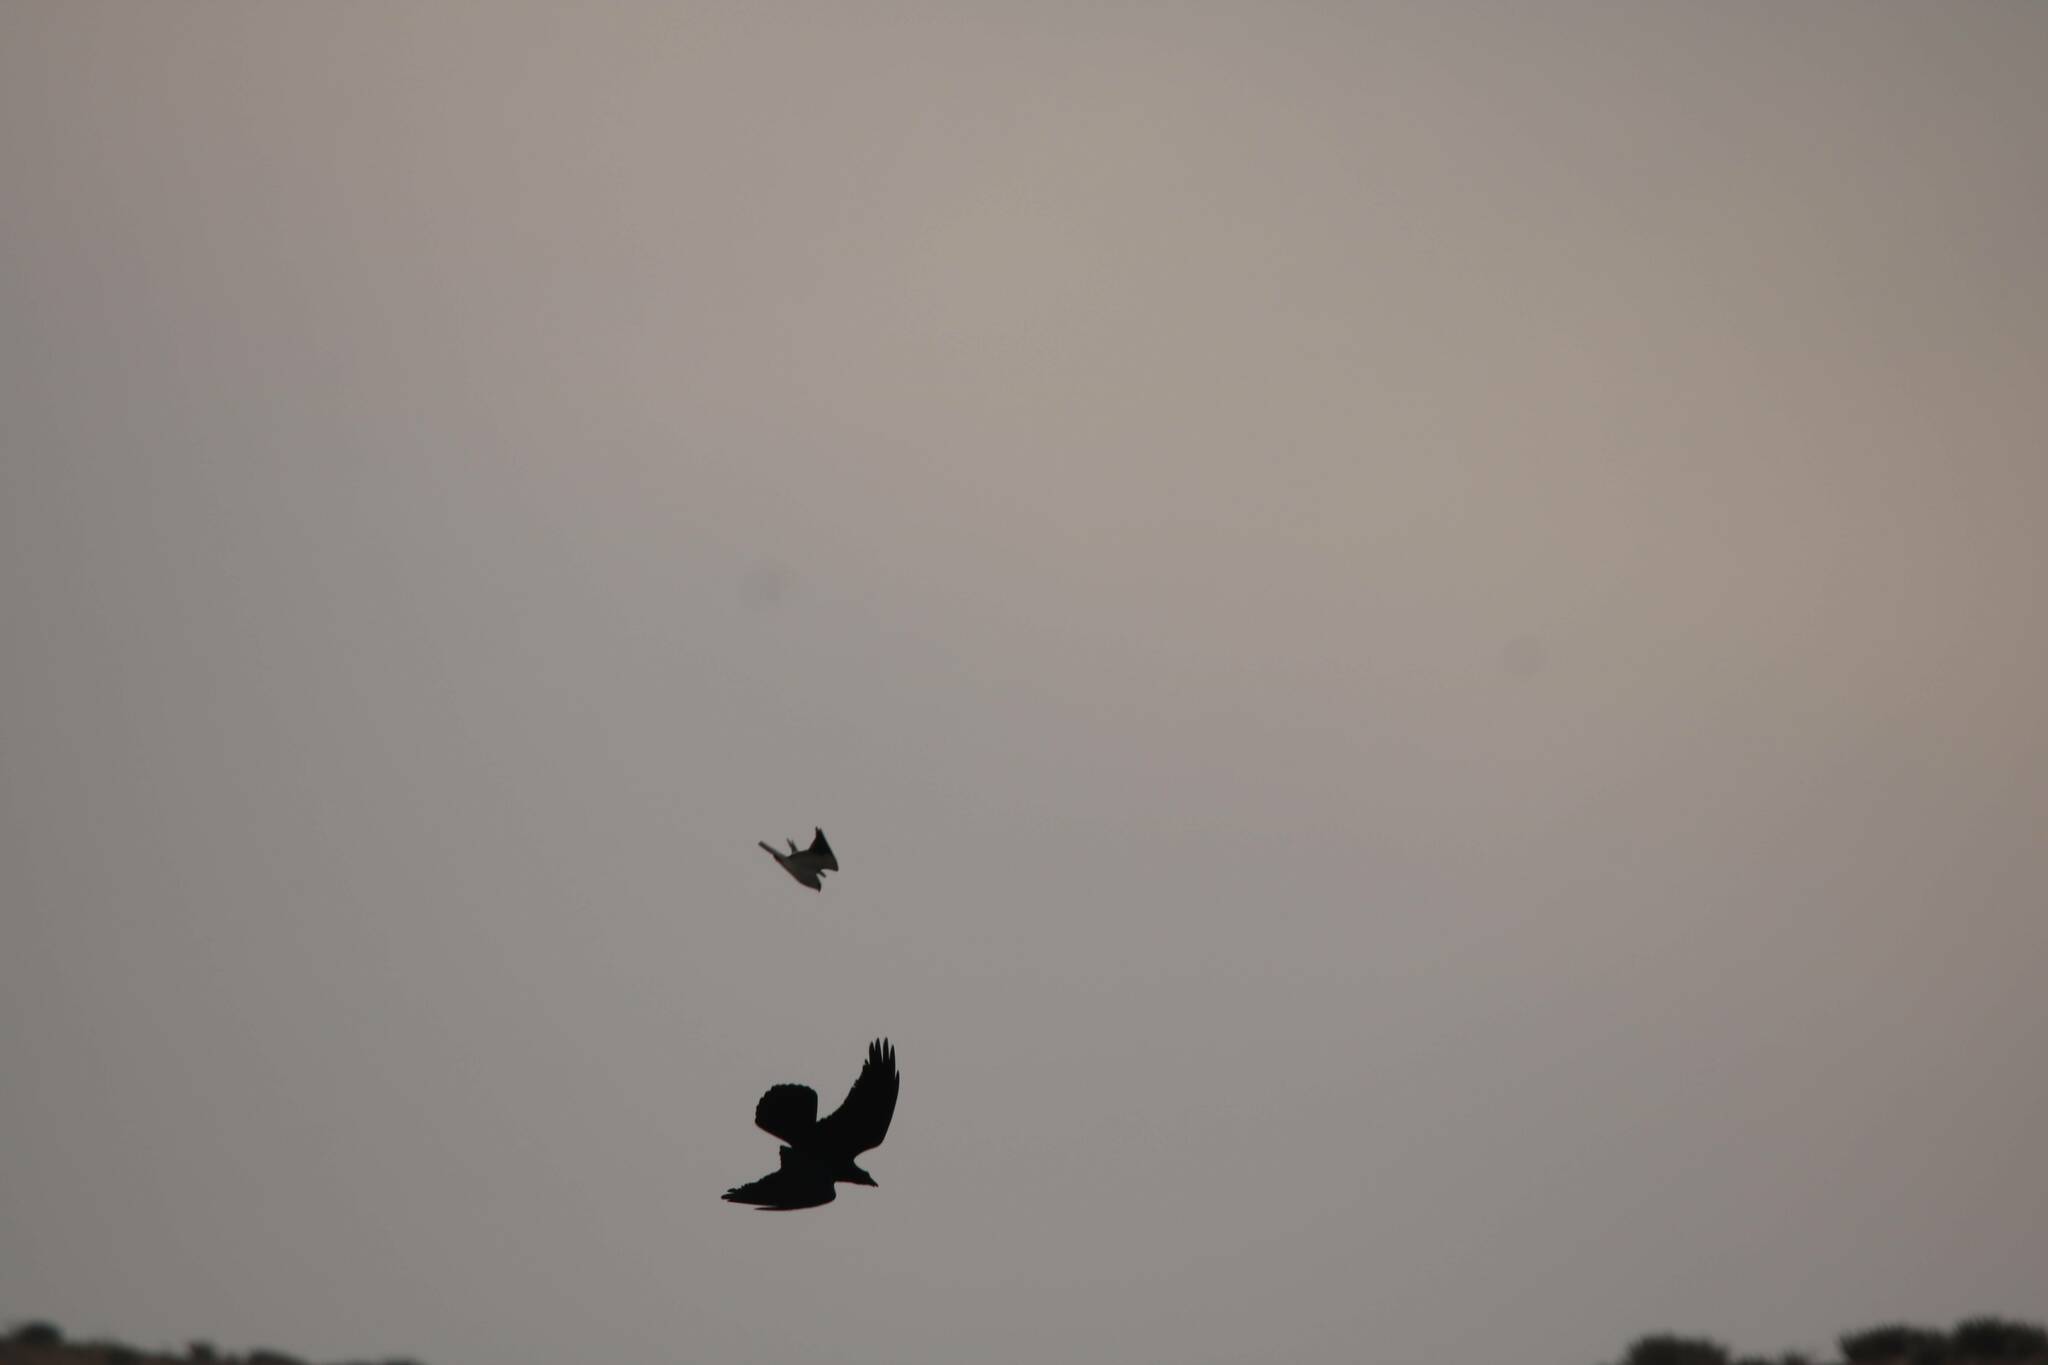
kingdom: Animalia
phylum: Chordata
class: Aves
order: Passeriformes
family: Corvidae
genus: Corvus
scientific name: Corvus corax
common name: Common raven
